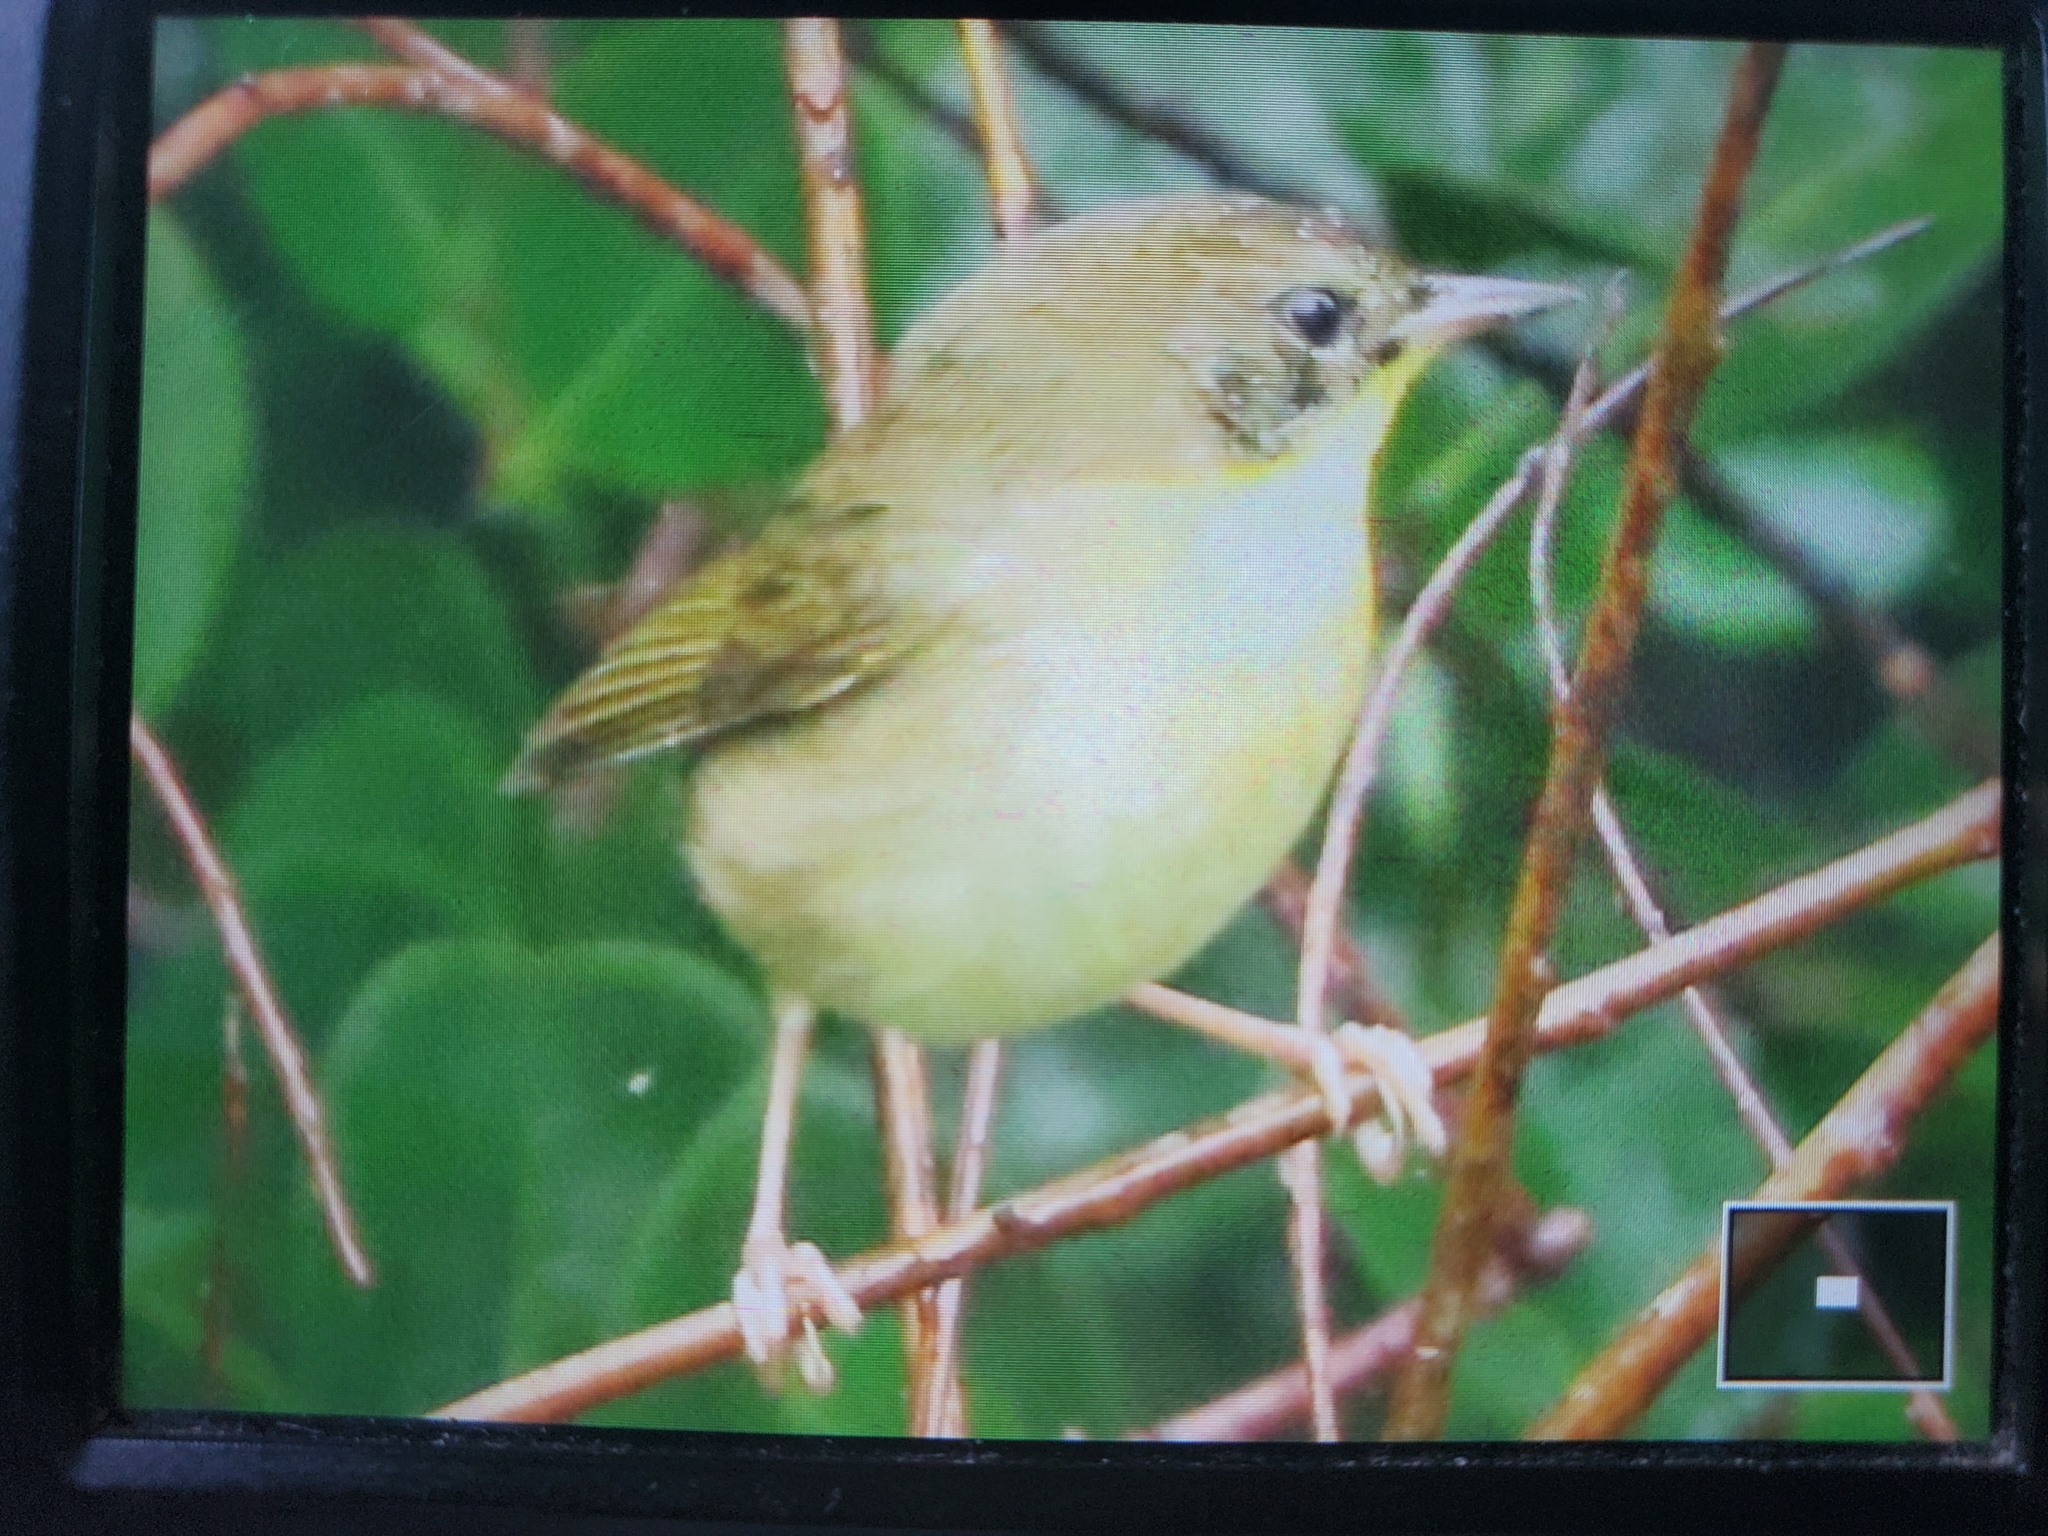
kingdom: Animalia
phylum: Chordata
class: Aves
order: Passeriformes
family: Parulidae
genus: Geothlypis
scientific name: Geothlypis trichas
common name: Common yellowthroat
